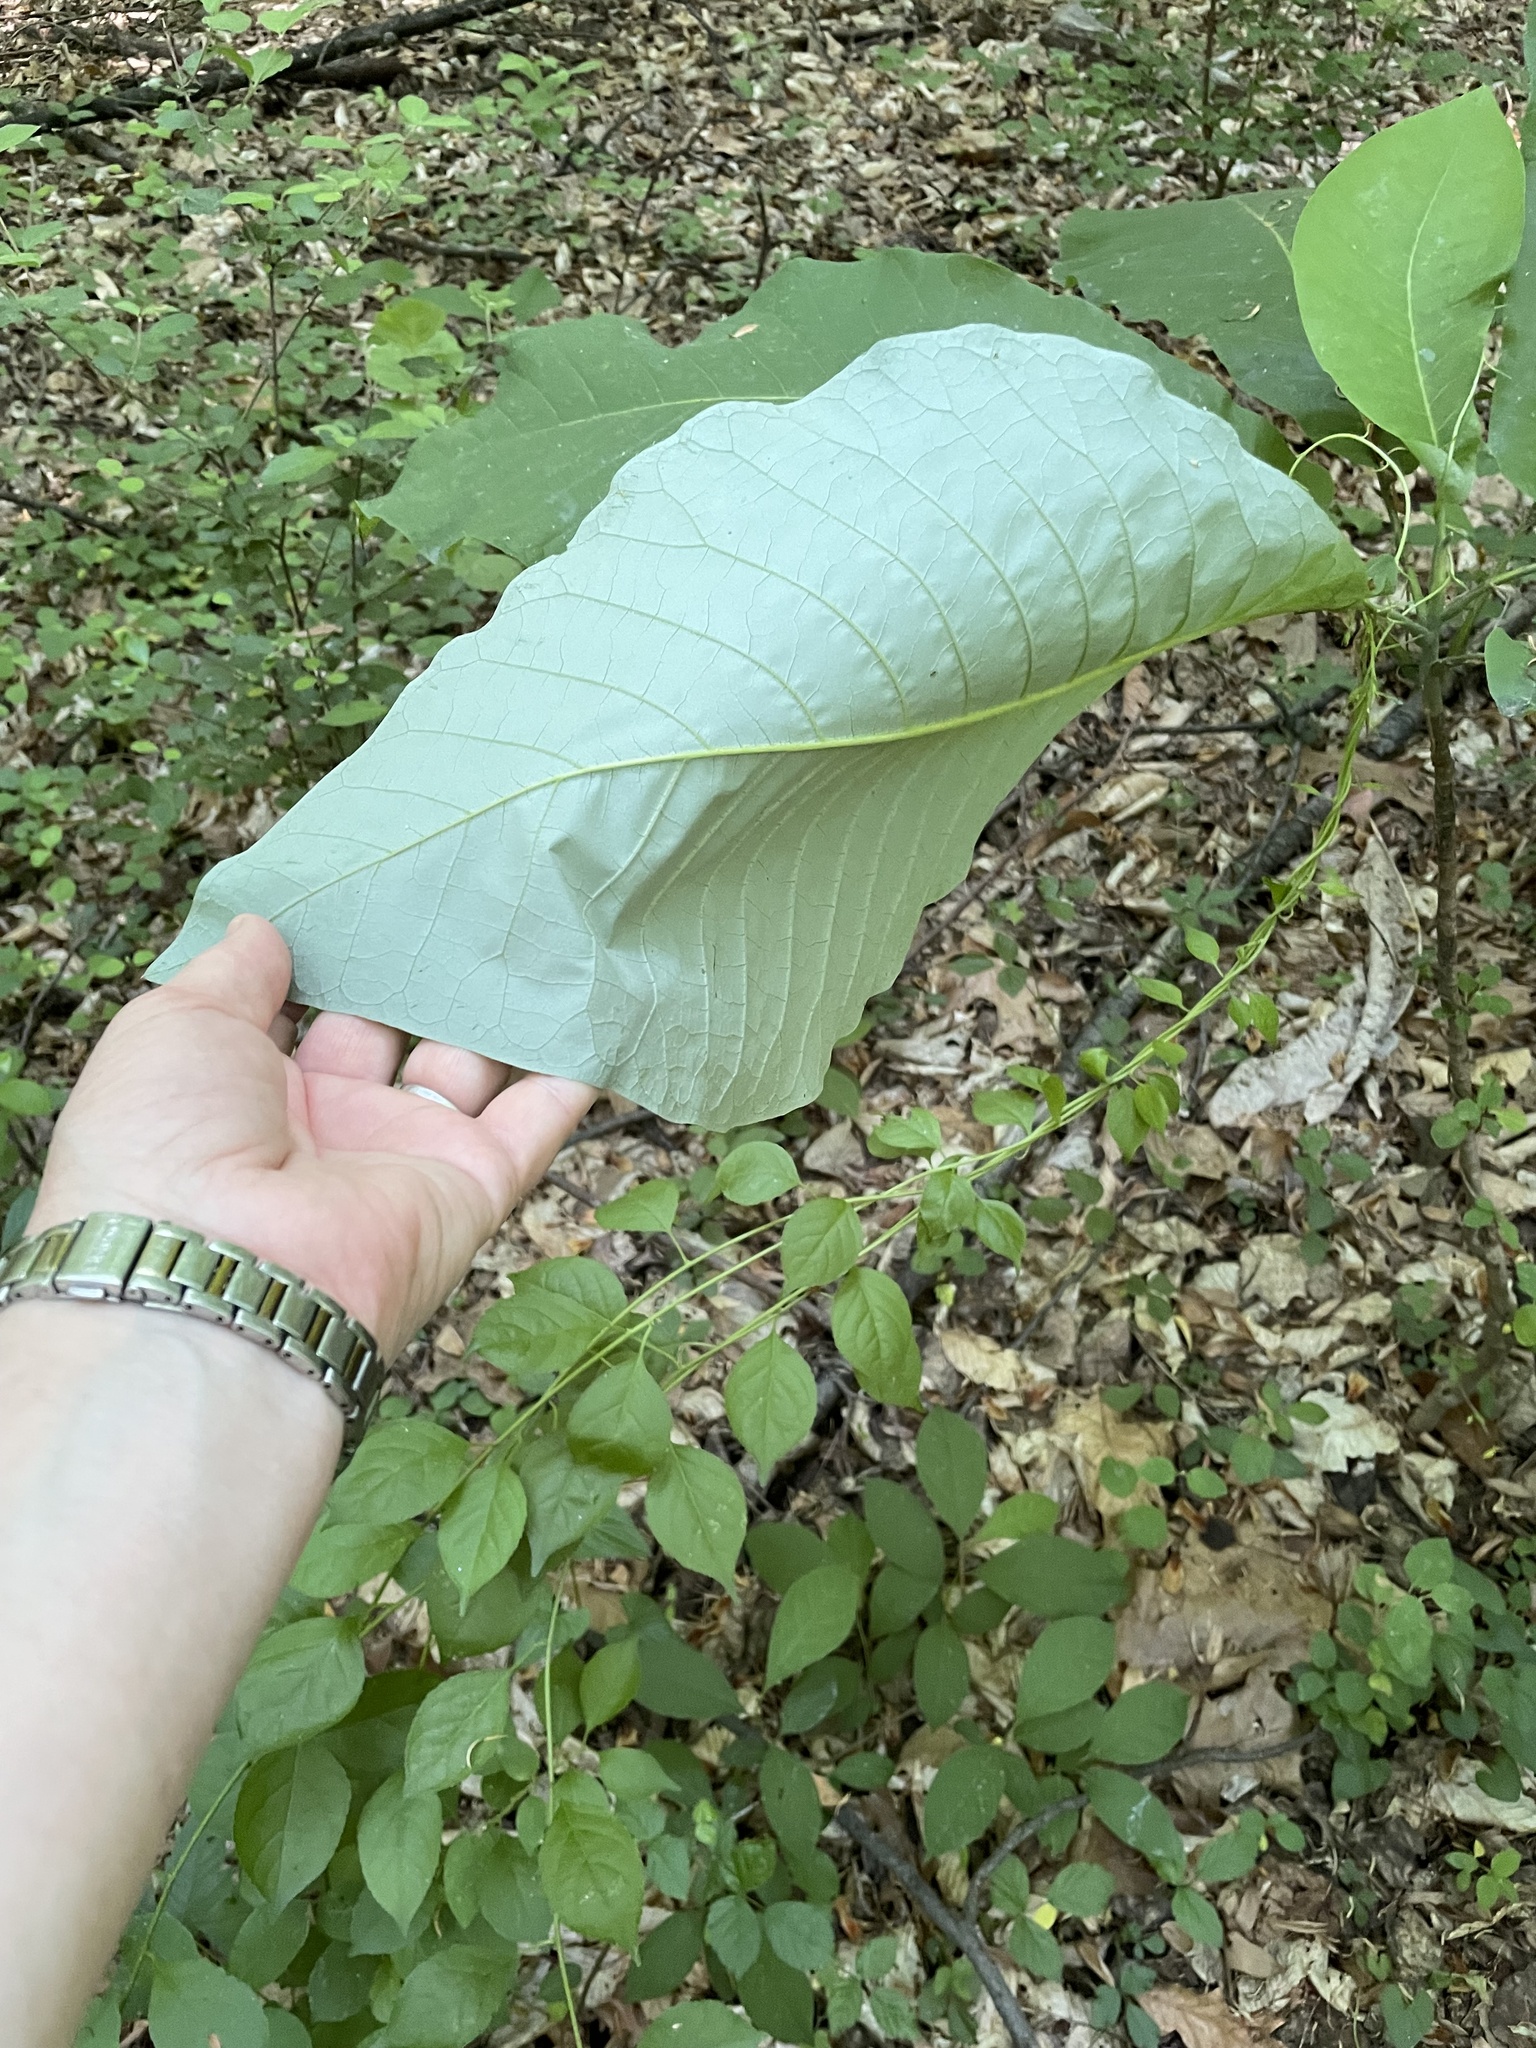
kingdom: Plantae
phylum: Tracheophyta
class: Magnoliopsida
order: Magnoliales
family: Magnoliaceae
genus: Magnolia
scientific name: Magnolia macrophylla
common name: Big-leaf magnolia
